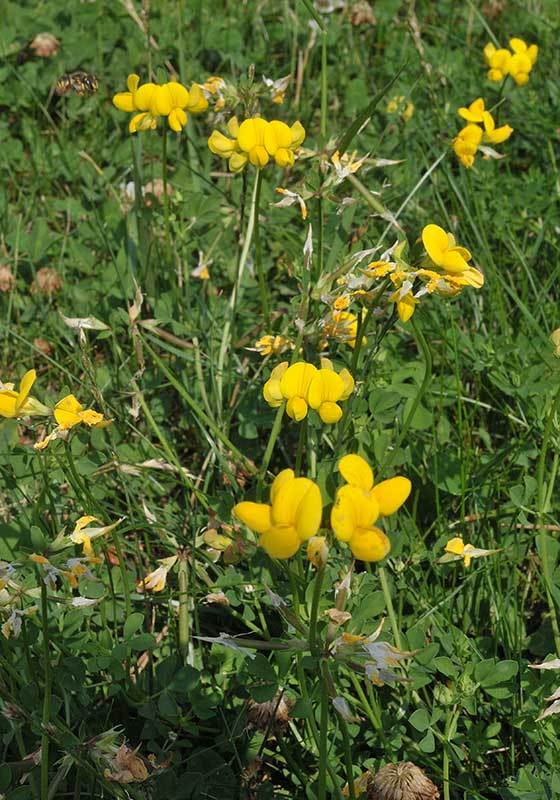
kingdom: Plantae
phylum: Tracheophyta
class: Magnoliopsida
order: Fabales
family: Fabaceae
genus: Lotus
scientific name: Lotus corniculatus
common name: Common bird's-foot-trefoil
